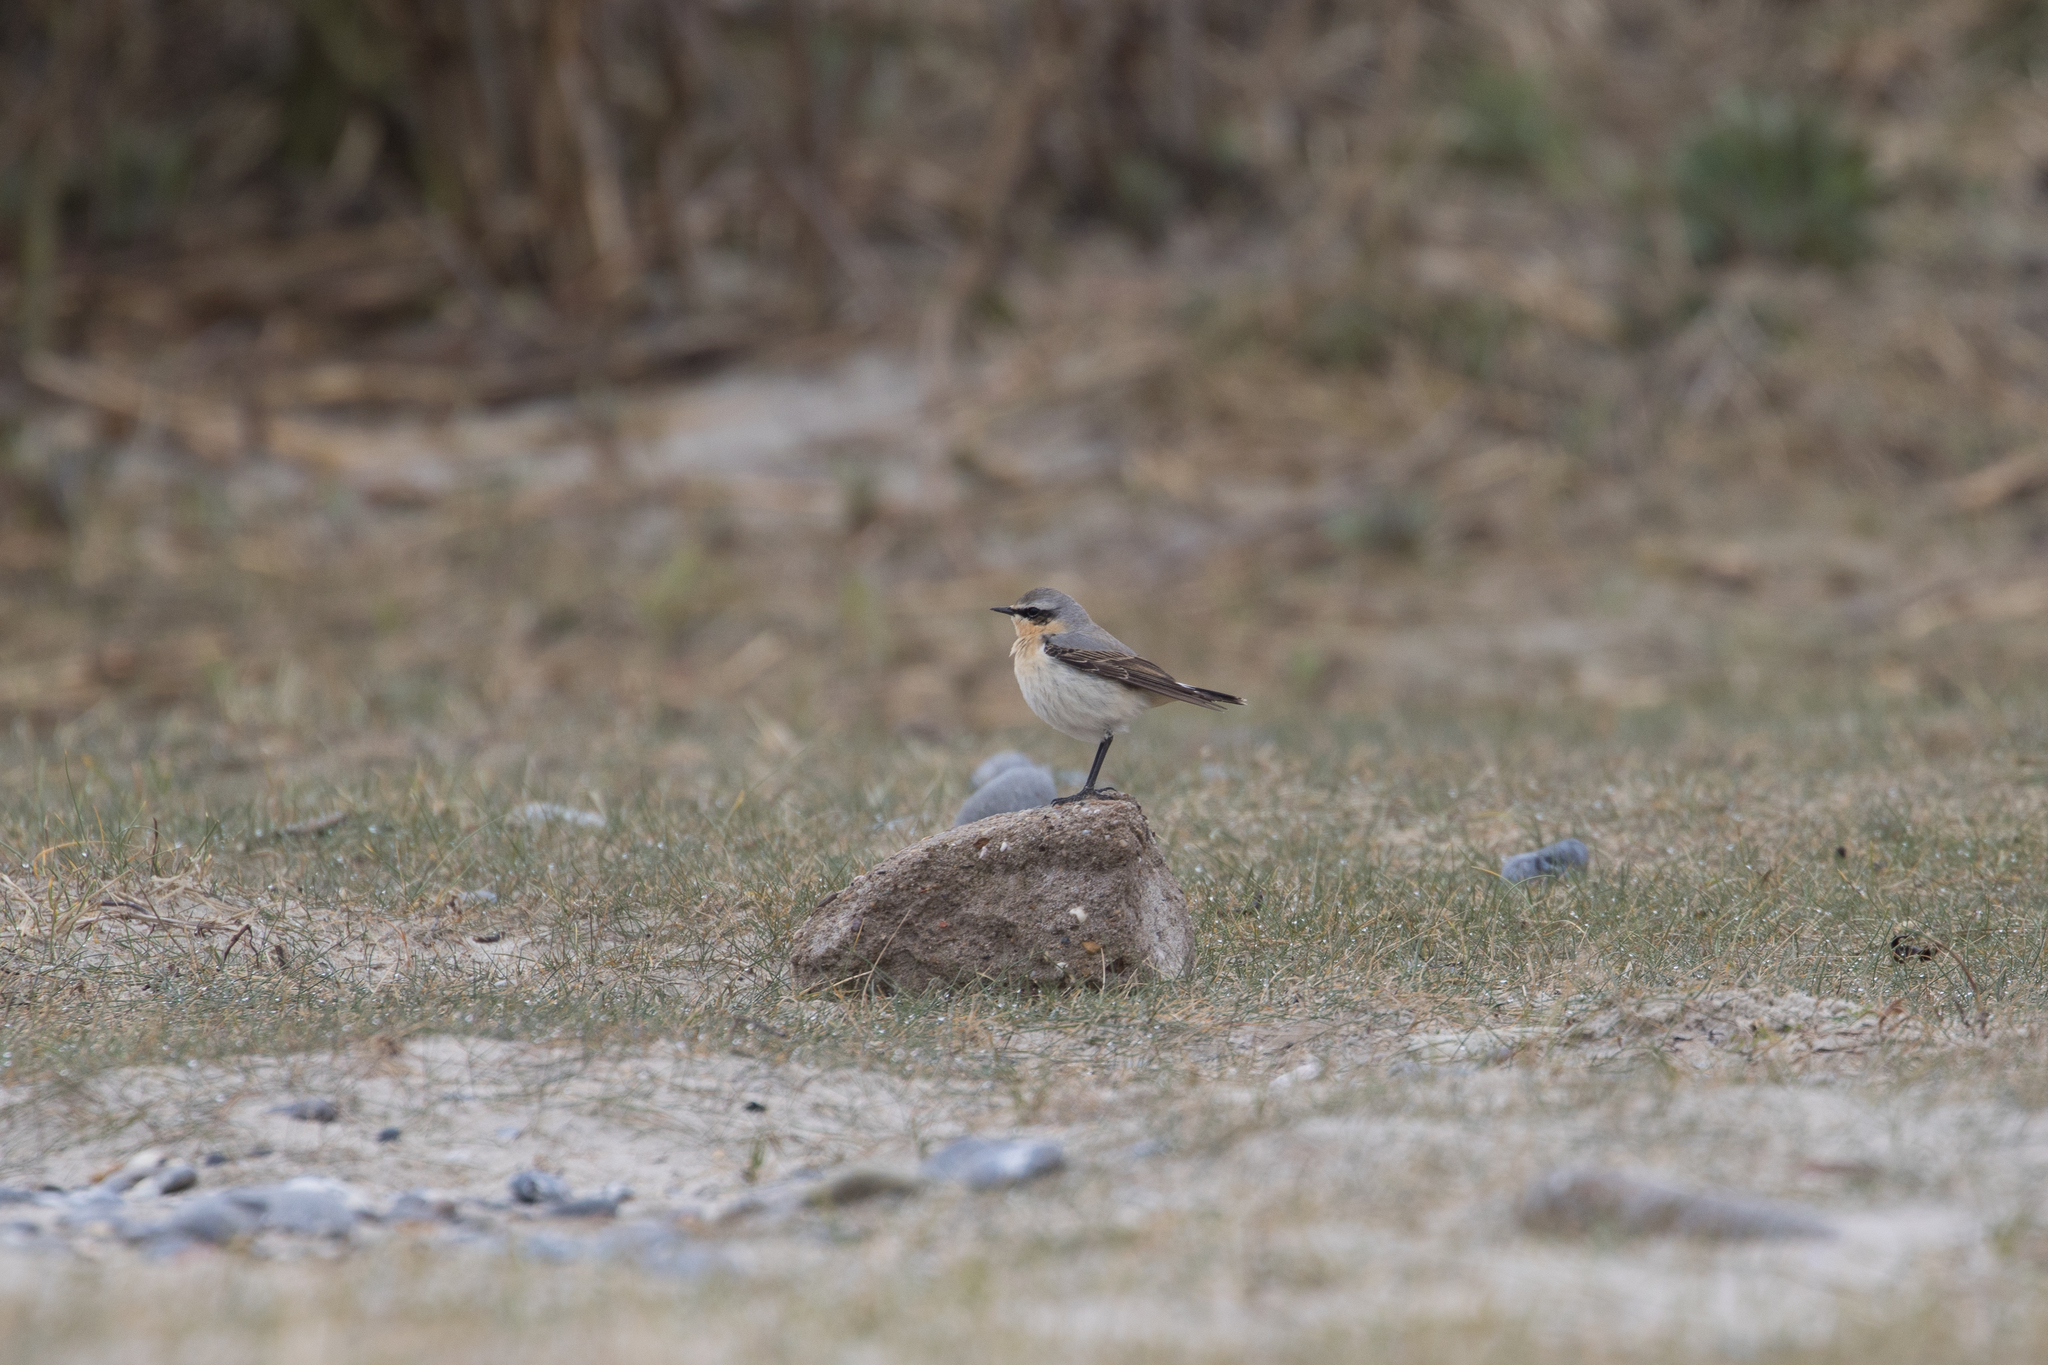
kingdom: Animalia
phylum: Chordata
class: Aves
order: Passeriformes
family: Muscicapidae
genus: Oenanthe
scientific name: Oenanthe oenanthe
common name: Northern wheatear
